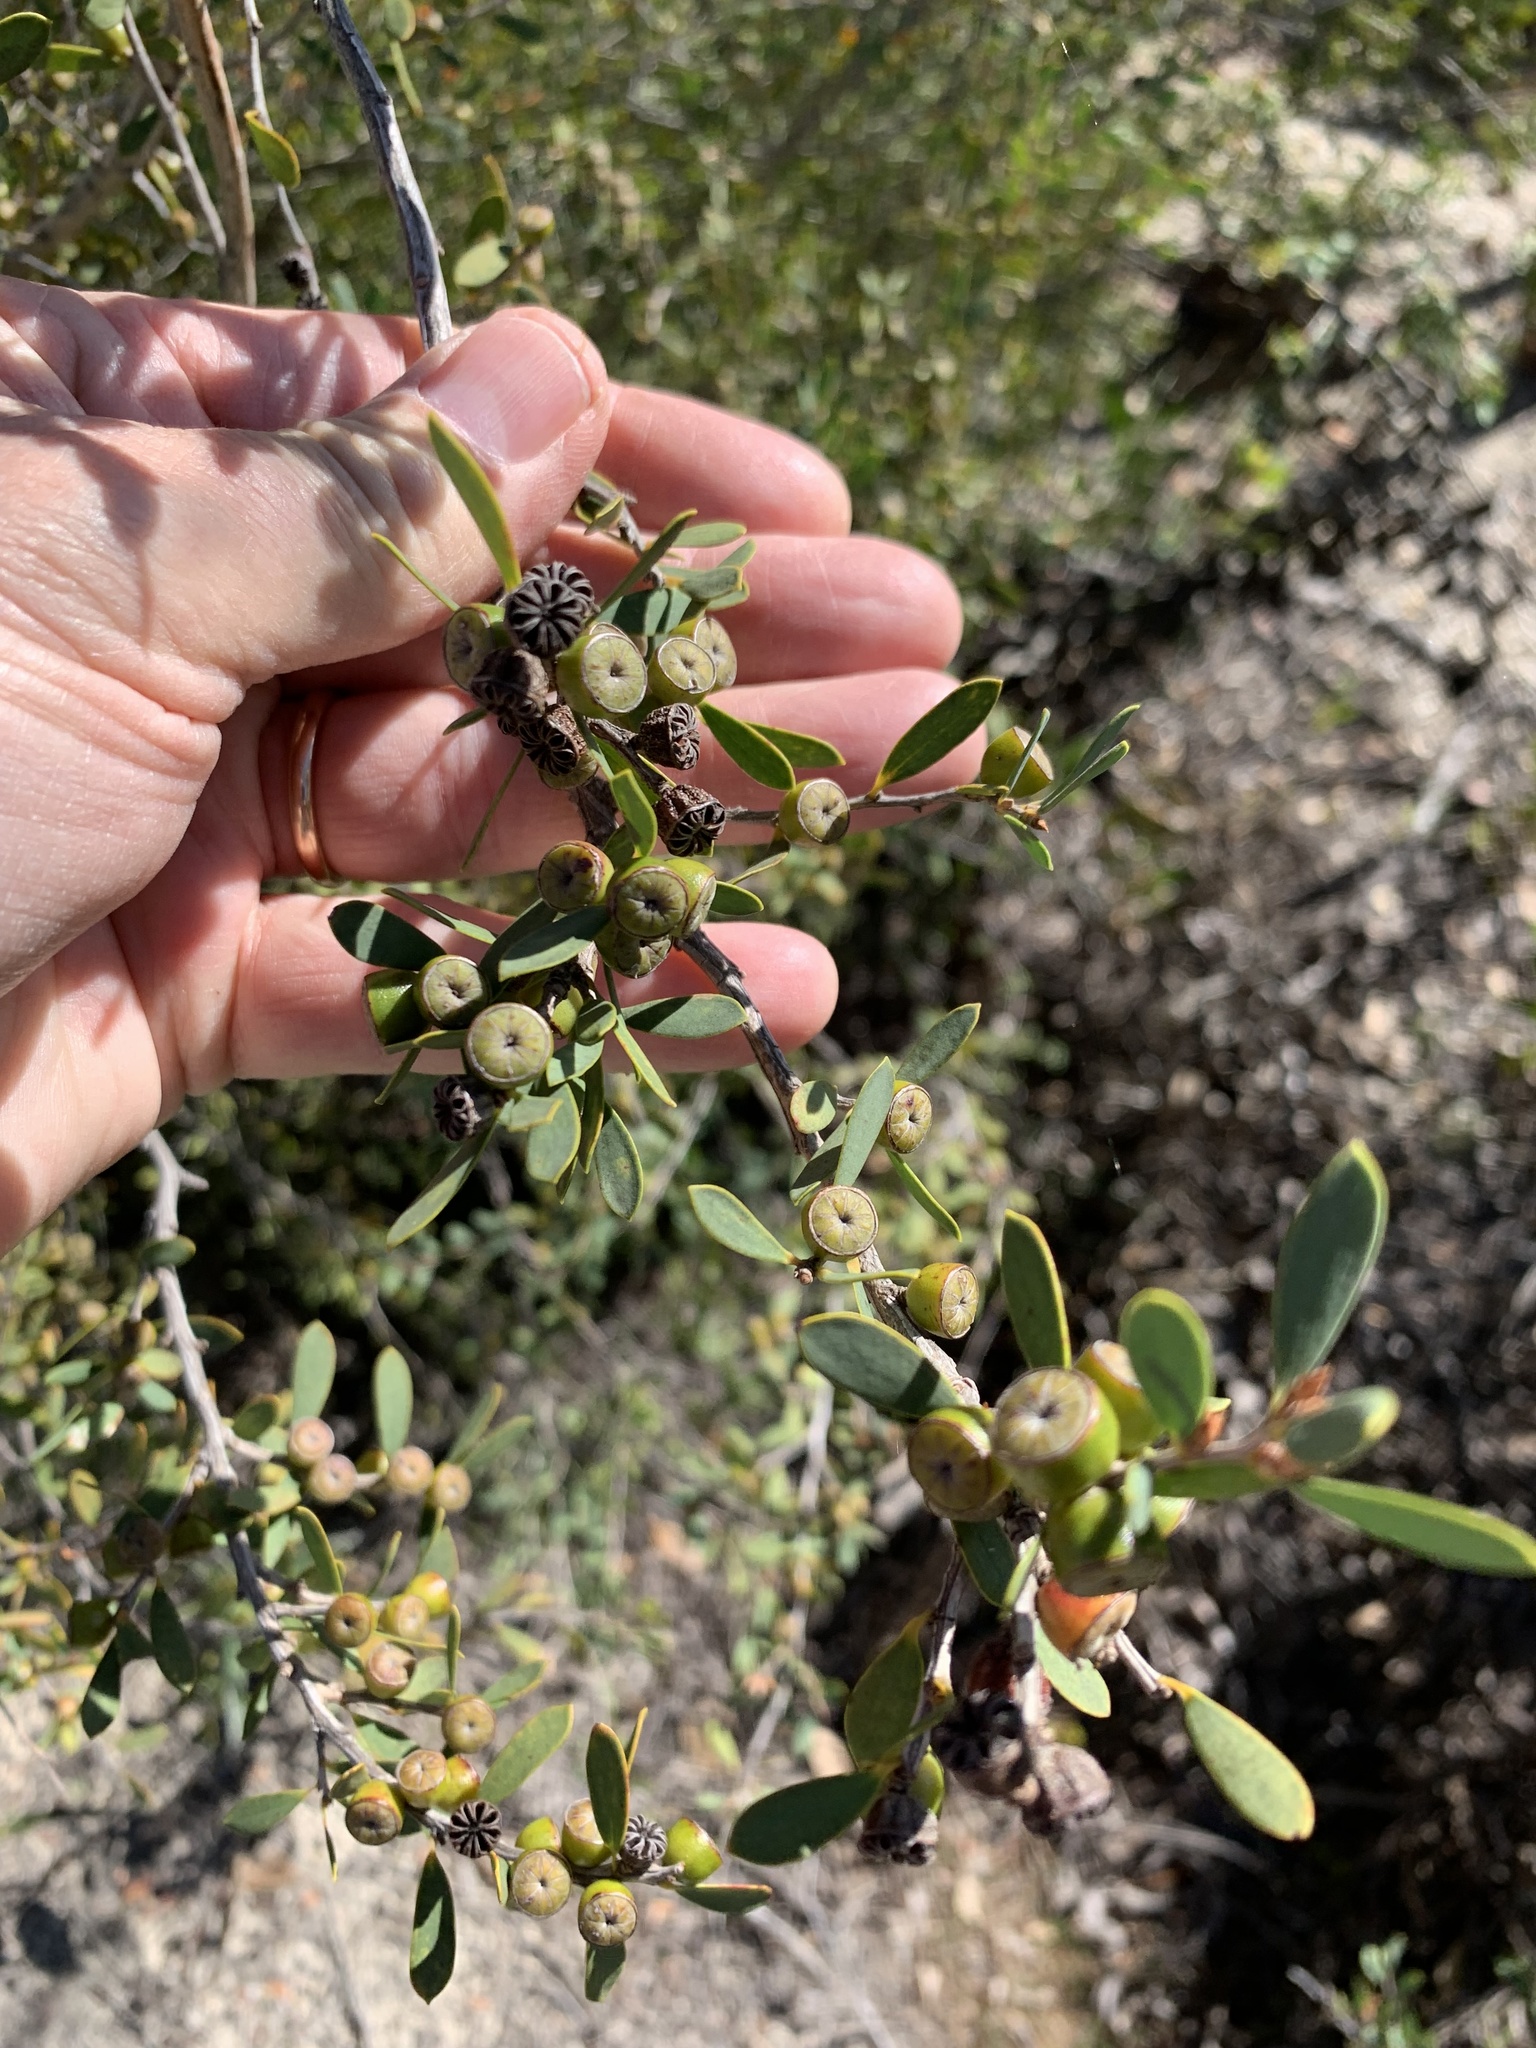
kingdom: Plantae
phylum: Tracheophyta
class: Magnoliopsida
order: Myrtales
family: Myrtaceae
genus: Leptospermum
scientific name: Leptospermum laevigatum
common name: Australian teatree
